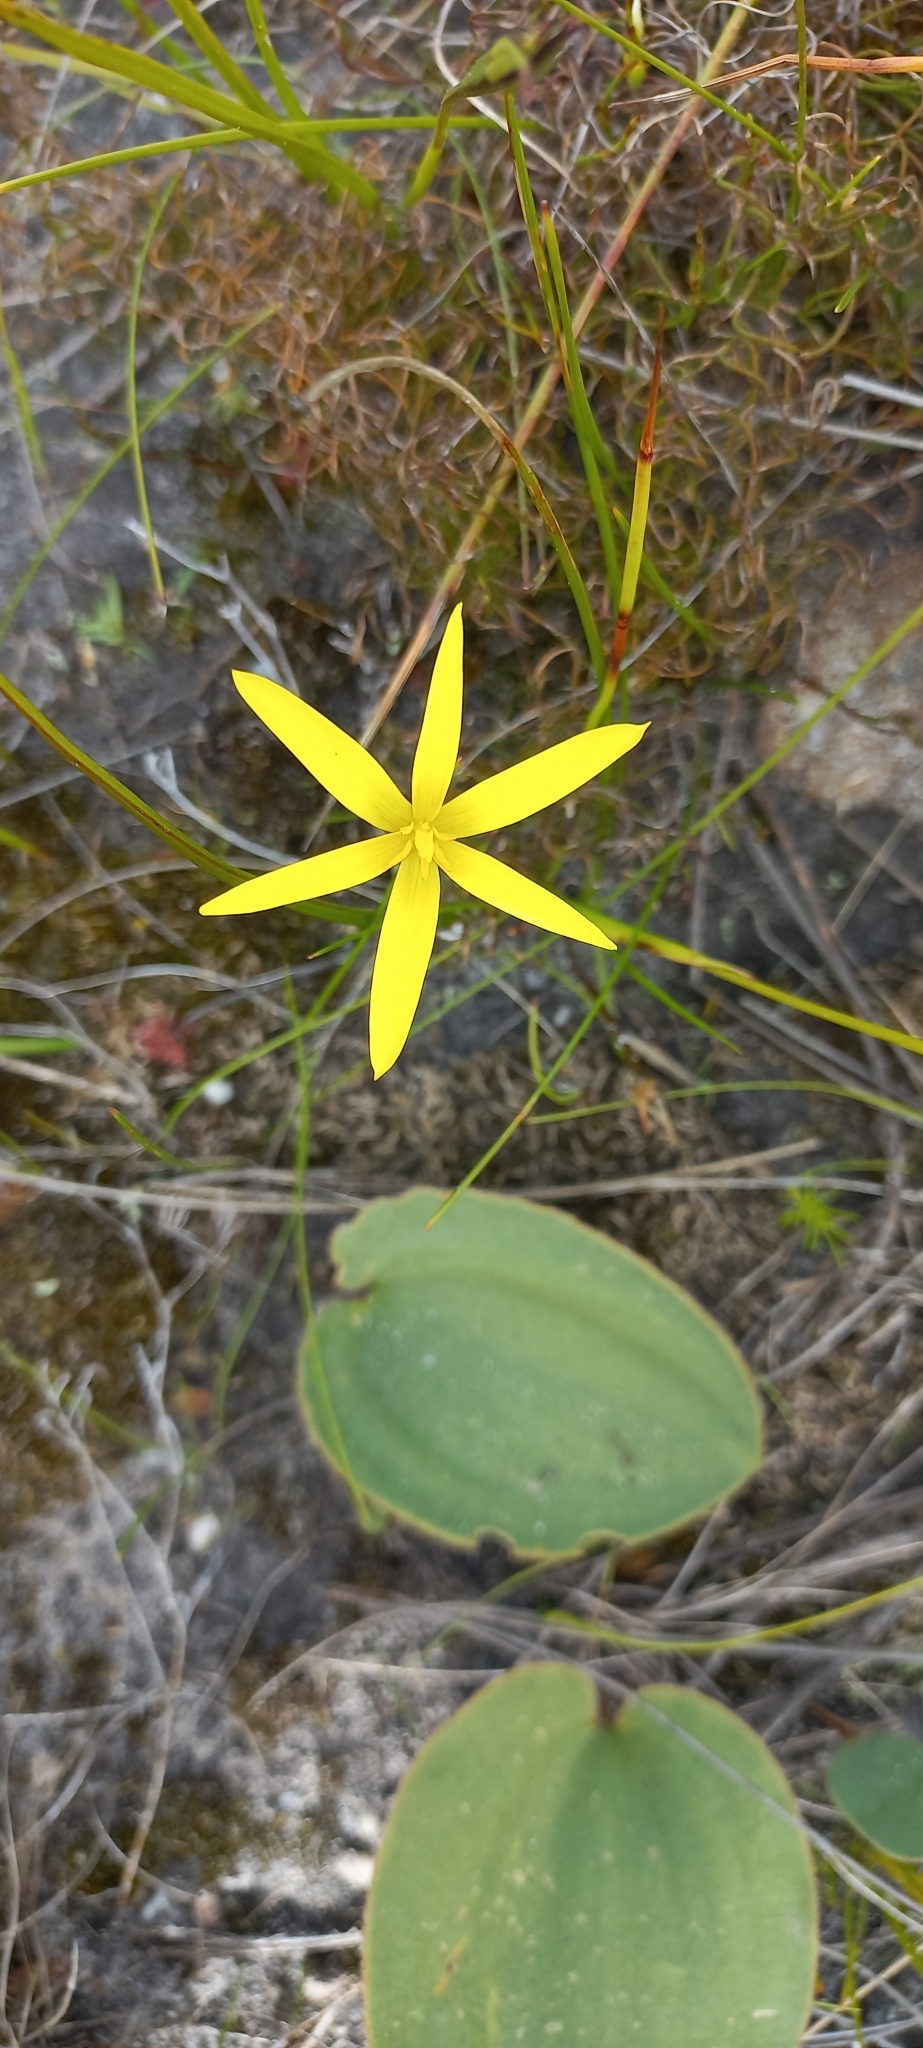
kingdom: Plantae
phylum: Tracheophyta
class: Liliopsida
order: Asparagales
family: Hypoxidaceae
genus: Pauridia
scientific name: Pauridia capensis
